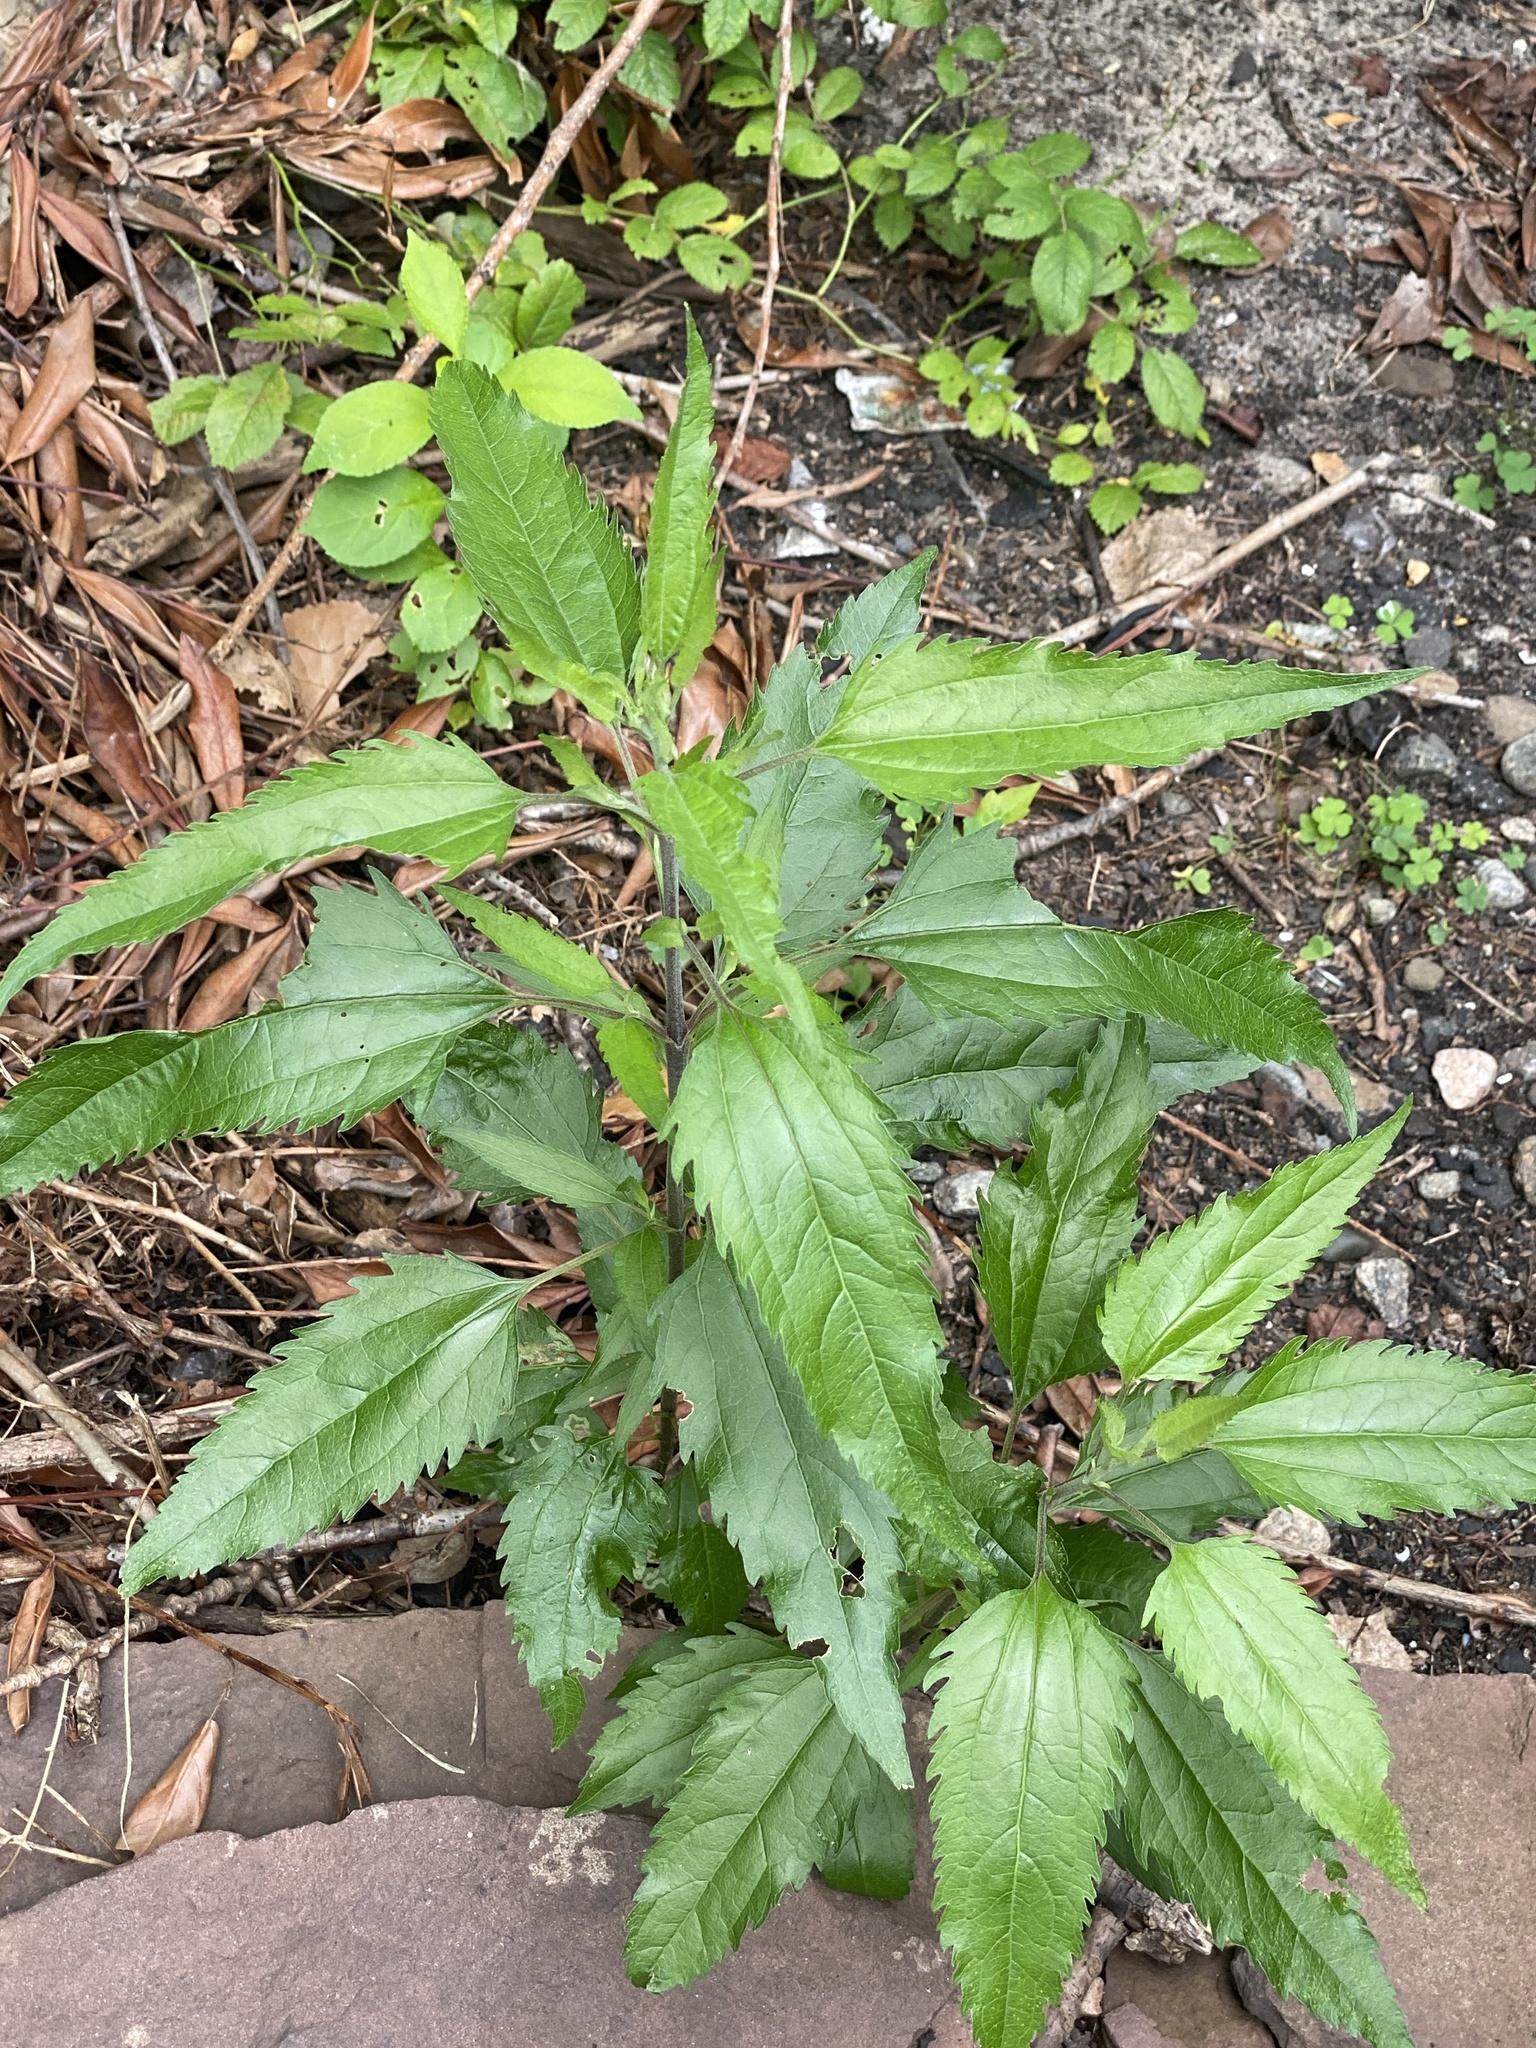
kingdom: Plantae
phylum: Tracheophyta
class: Magnoliopsida
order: Asterales
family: Asteraceae
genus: Eupatorium
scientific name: Eupatorium serotinum
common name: Late boneset
